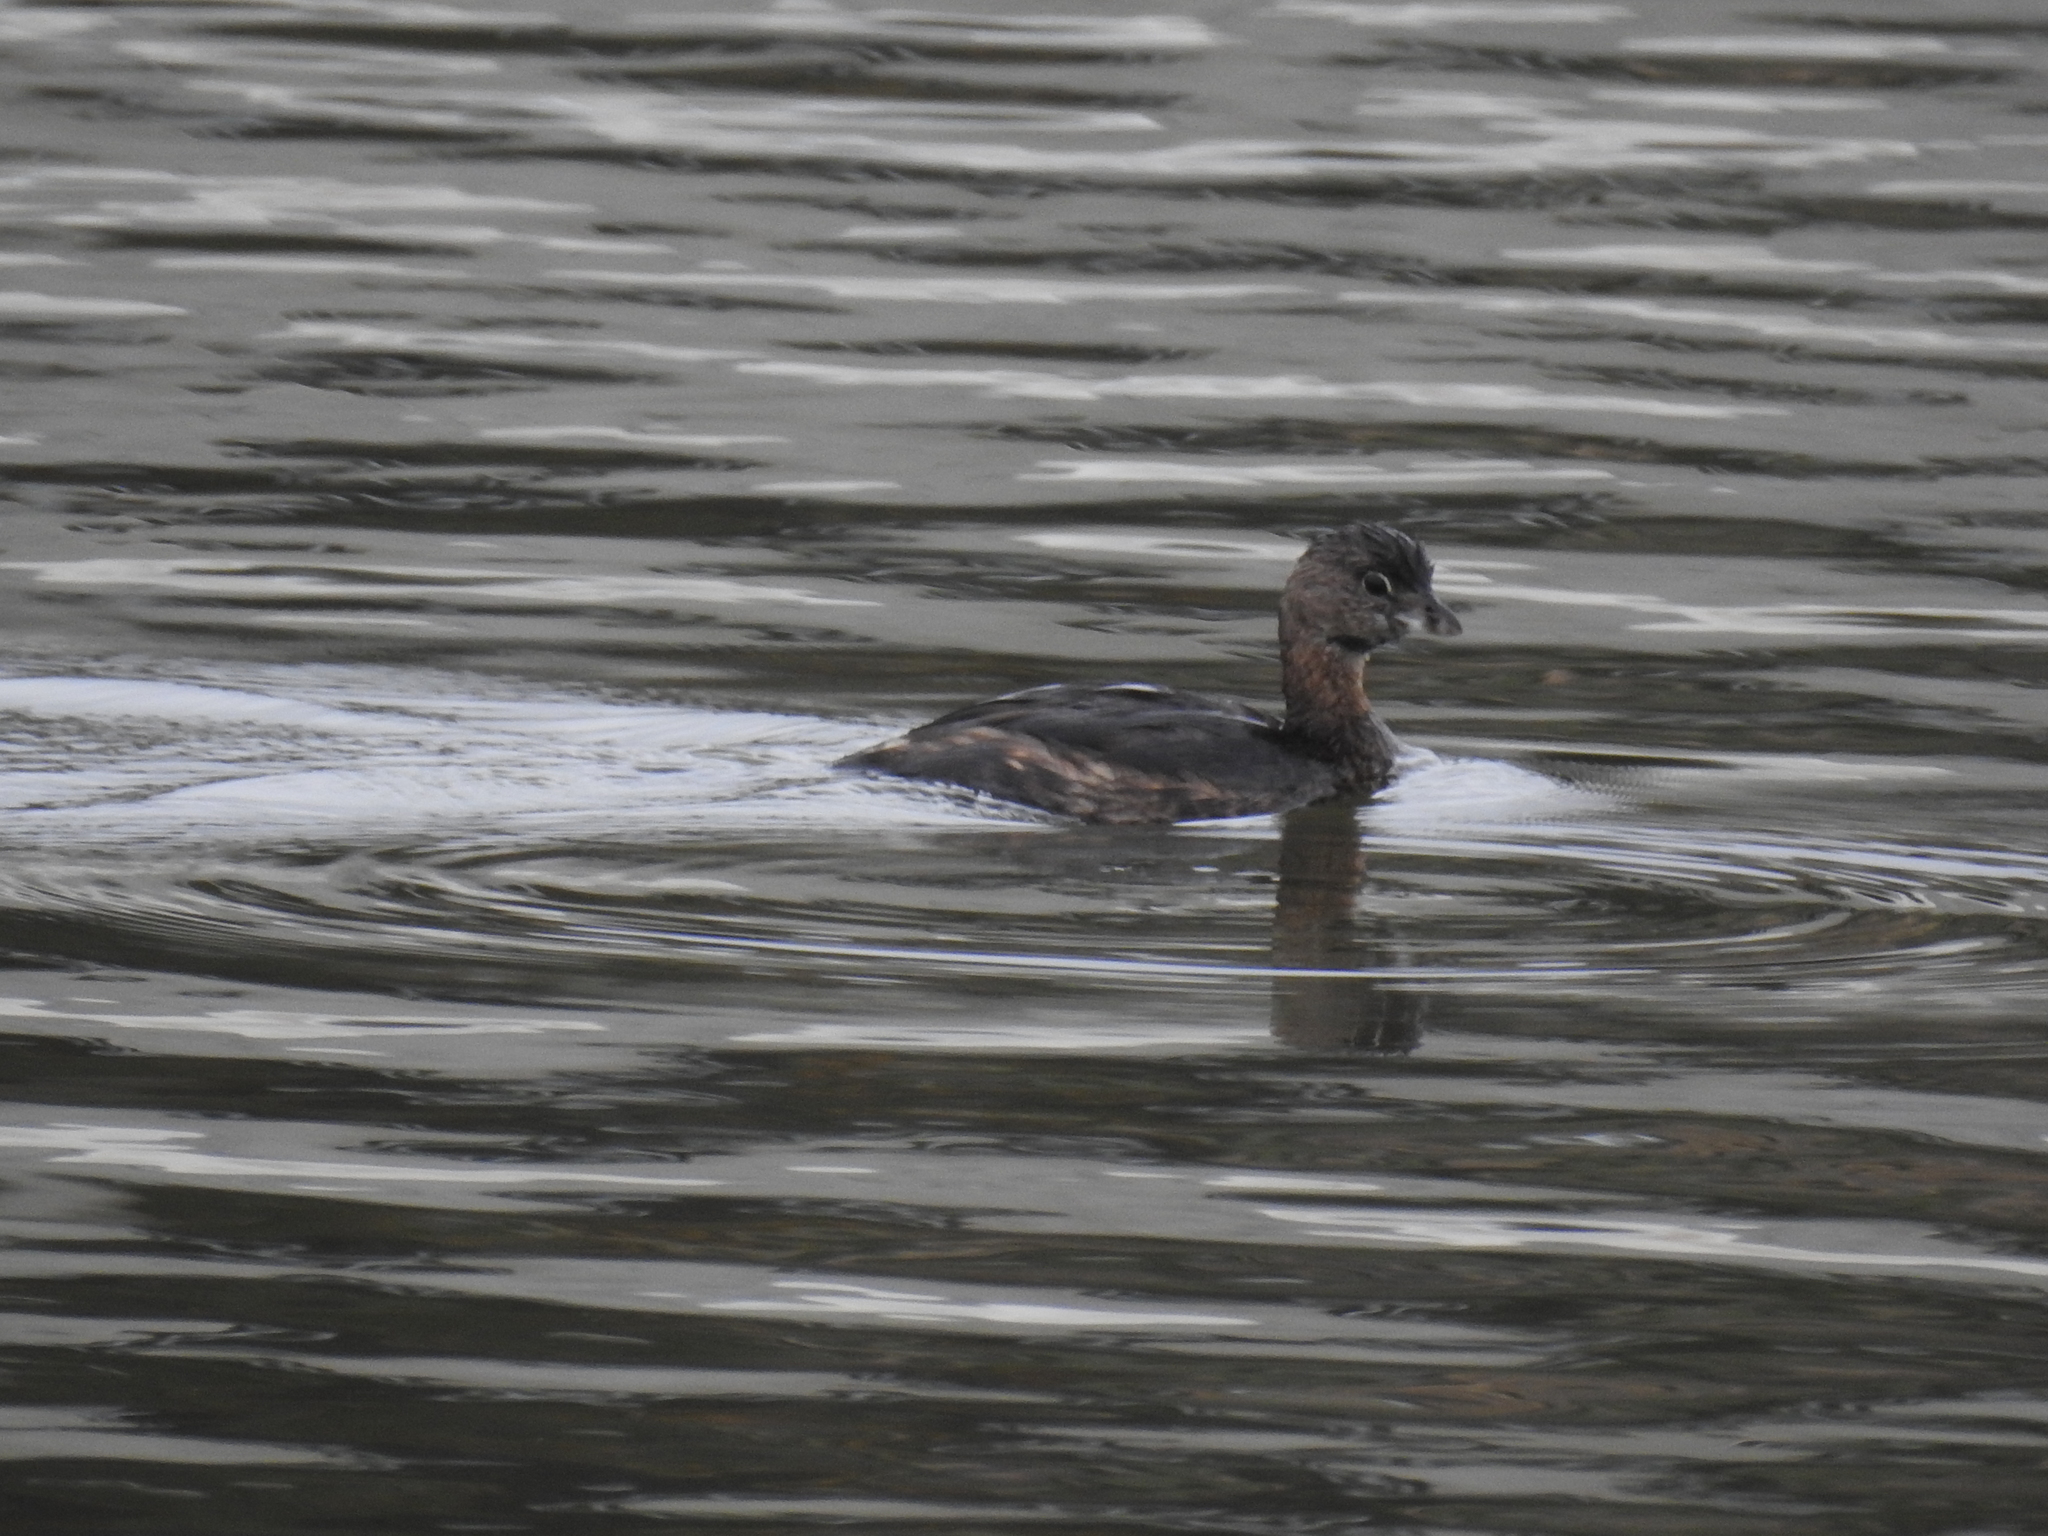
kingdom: Animalia
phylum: Chordata
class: Aves
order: Podicipediformes
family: Podicipedidae
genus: Podilymbus
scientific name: Podilymbus podiceps
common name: Pied-billed grebe
